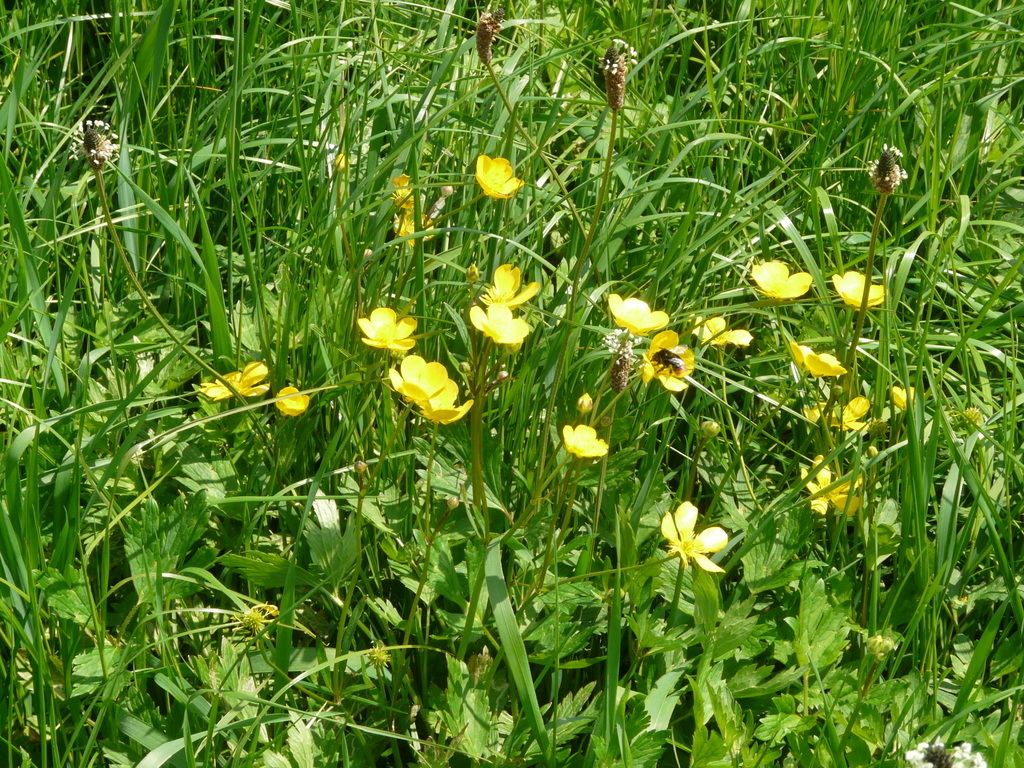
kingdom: Plantae
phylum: Tracheophyta
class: Magnoliopsida
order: Ranunculales
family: Ranunculaceae
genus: Ranunculus
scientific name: Ranunculus repens
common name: Creeping buttercup
